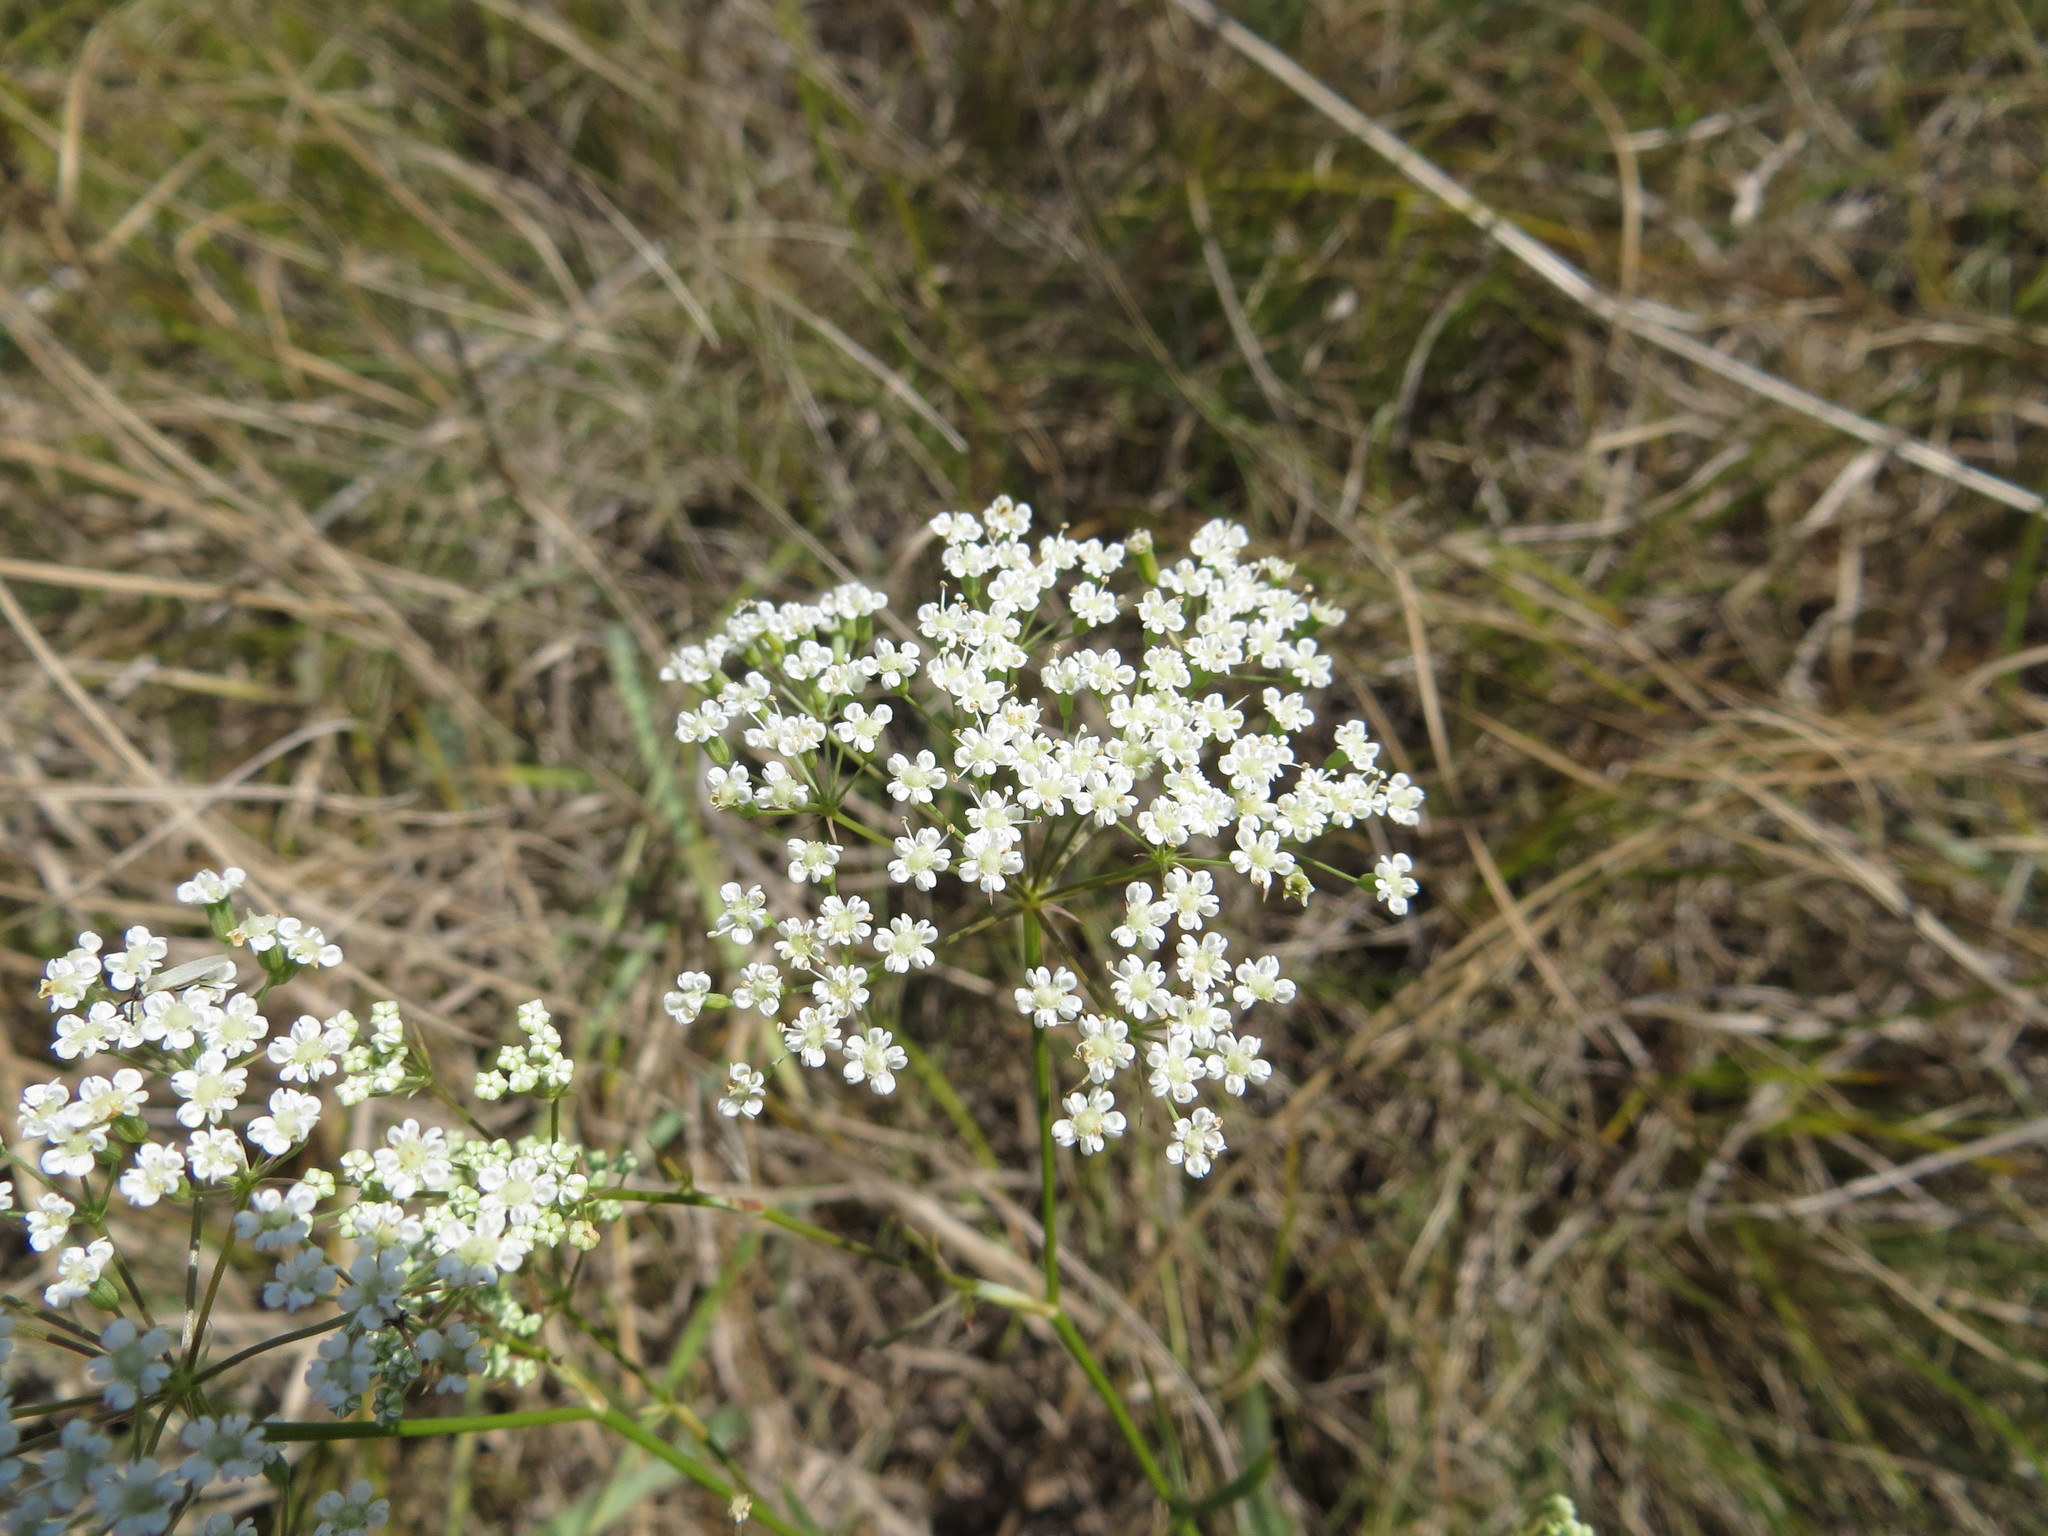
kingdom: Plantae
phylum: Tracheophyta
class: Magnoliopsida
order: Apiales
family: Apiaceae
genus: Falcaria
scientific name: Falcaria vulgaris
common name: Longleaf
